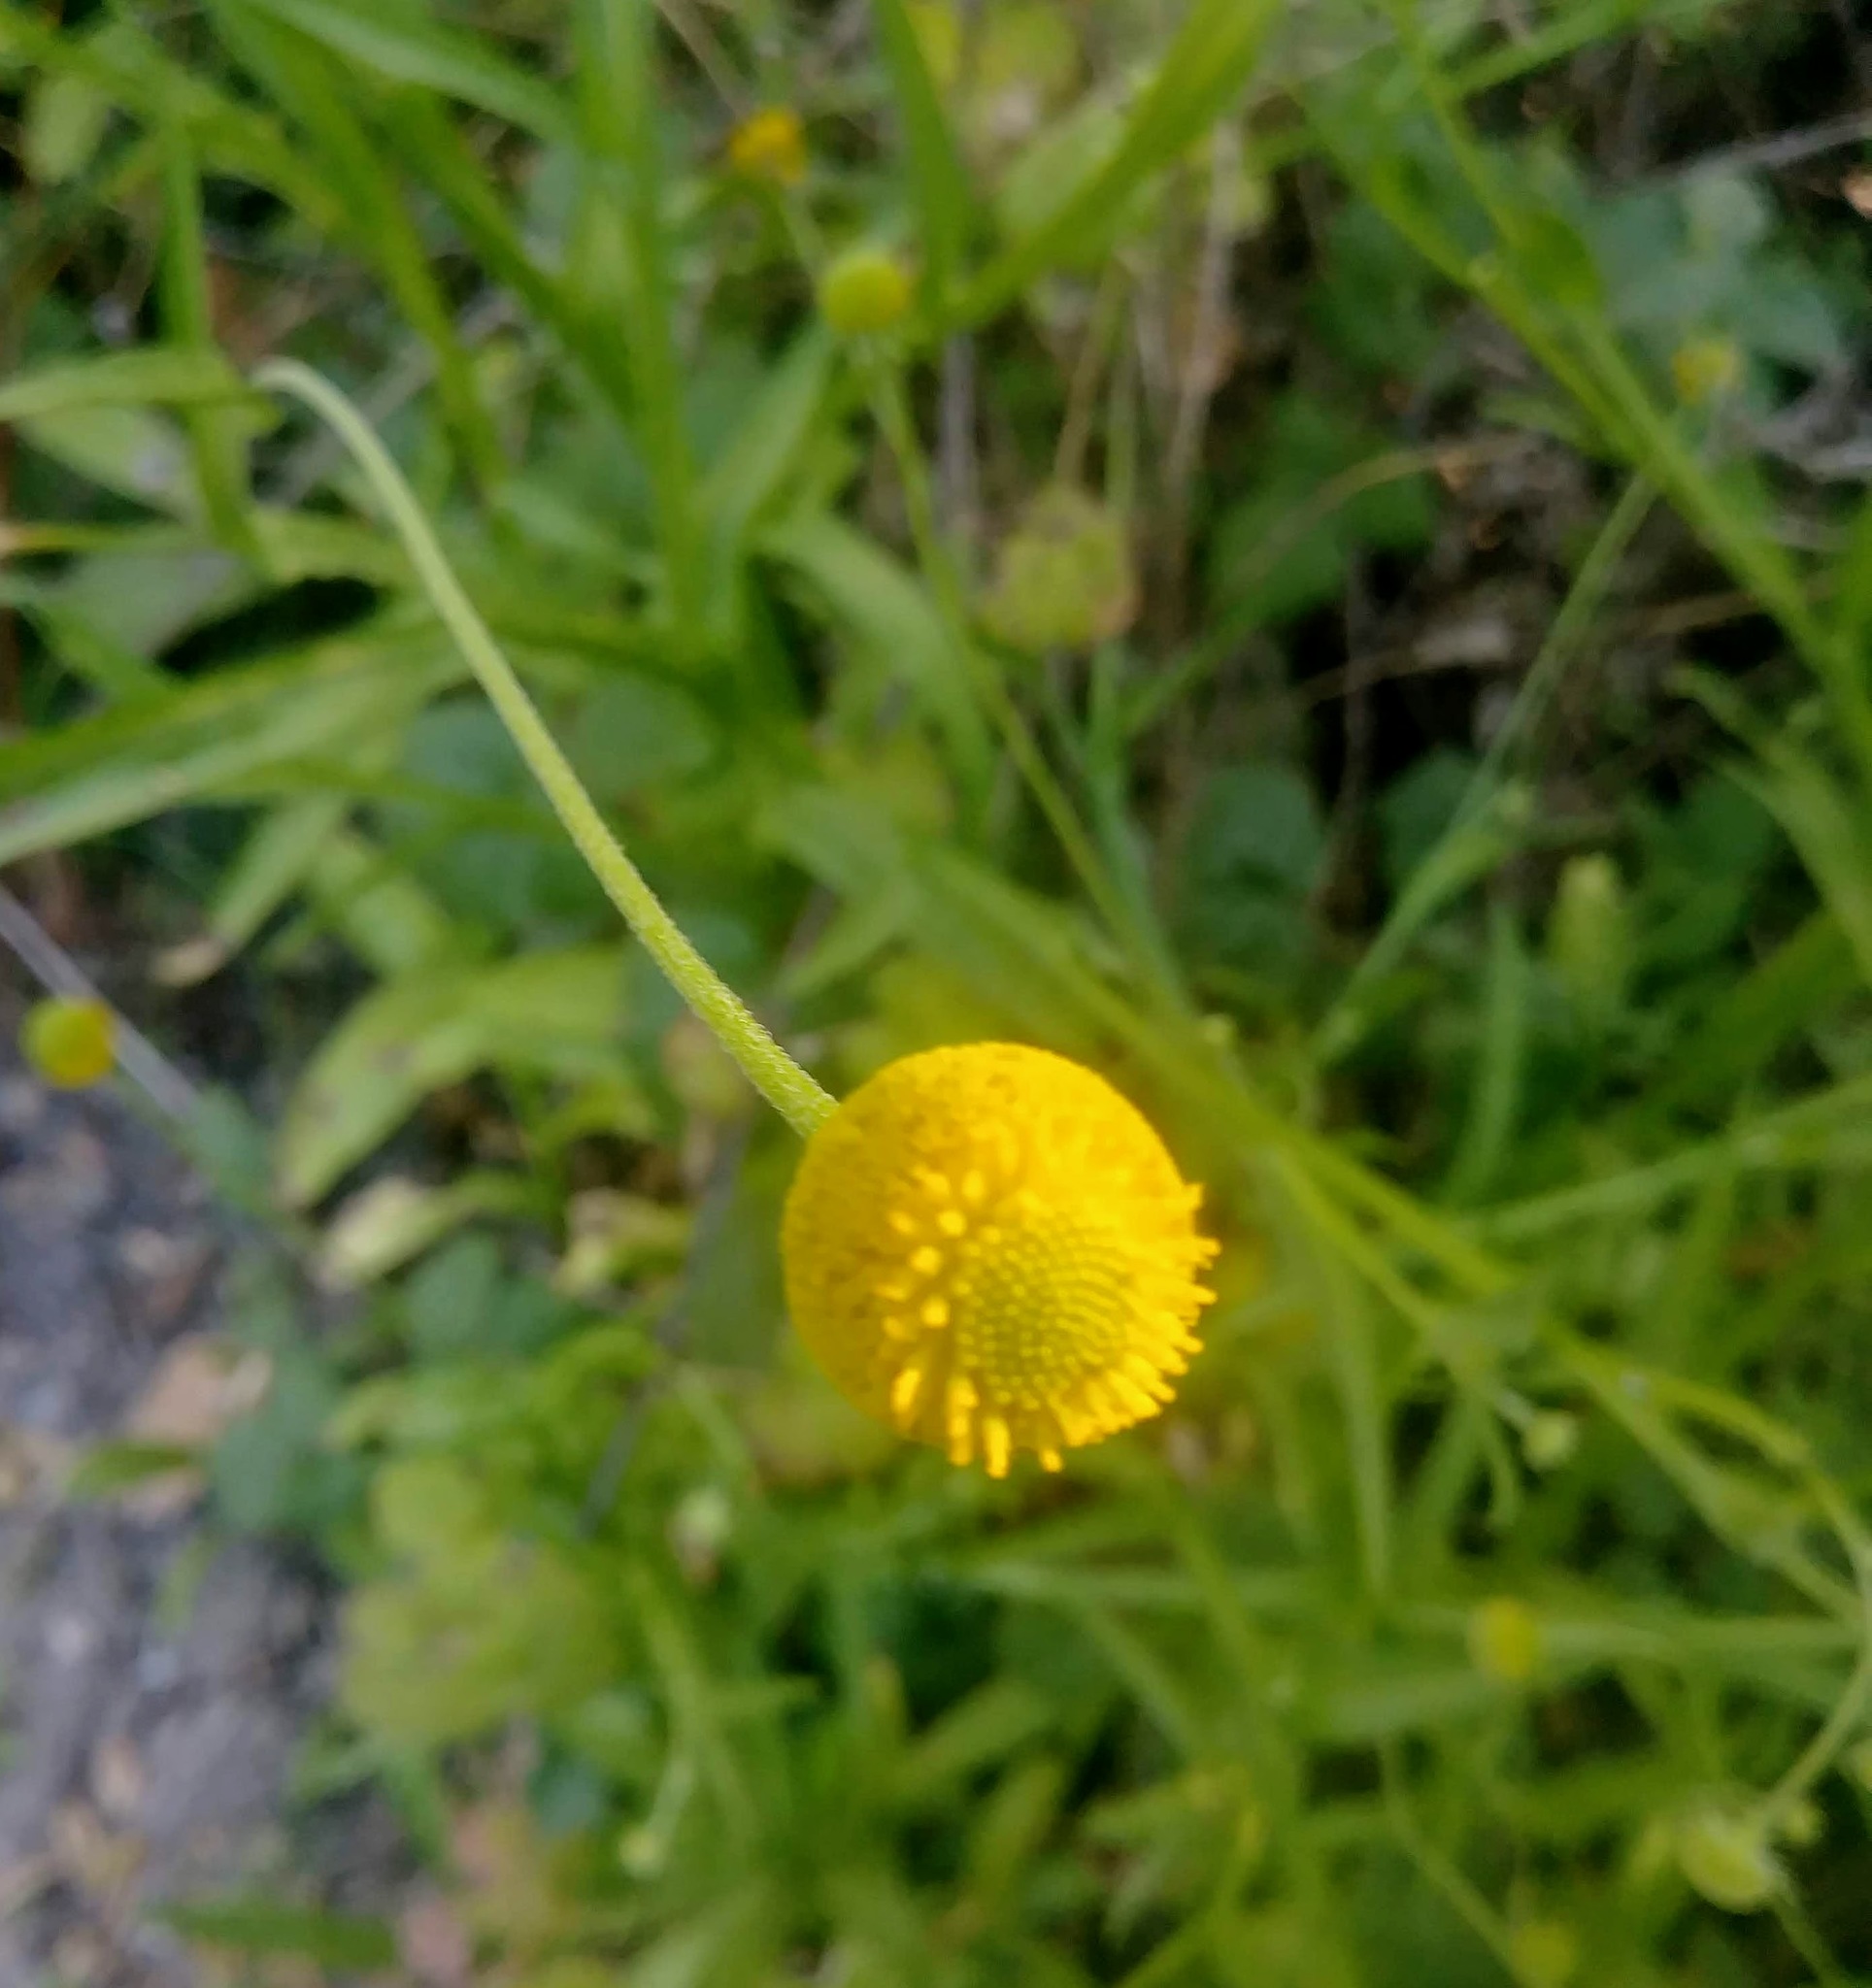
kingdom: Plantae
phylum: Tracheophyta
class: Magnoliopsida
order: Asterales
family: Asteraceae
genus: Helenium
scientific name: Helenium puberulum
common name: Sneezewort
